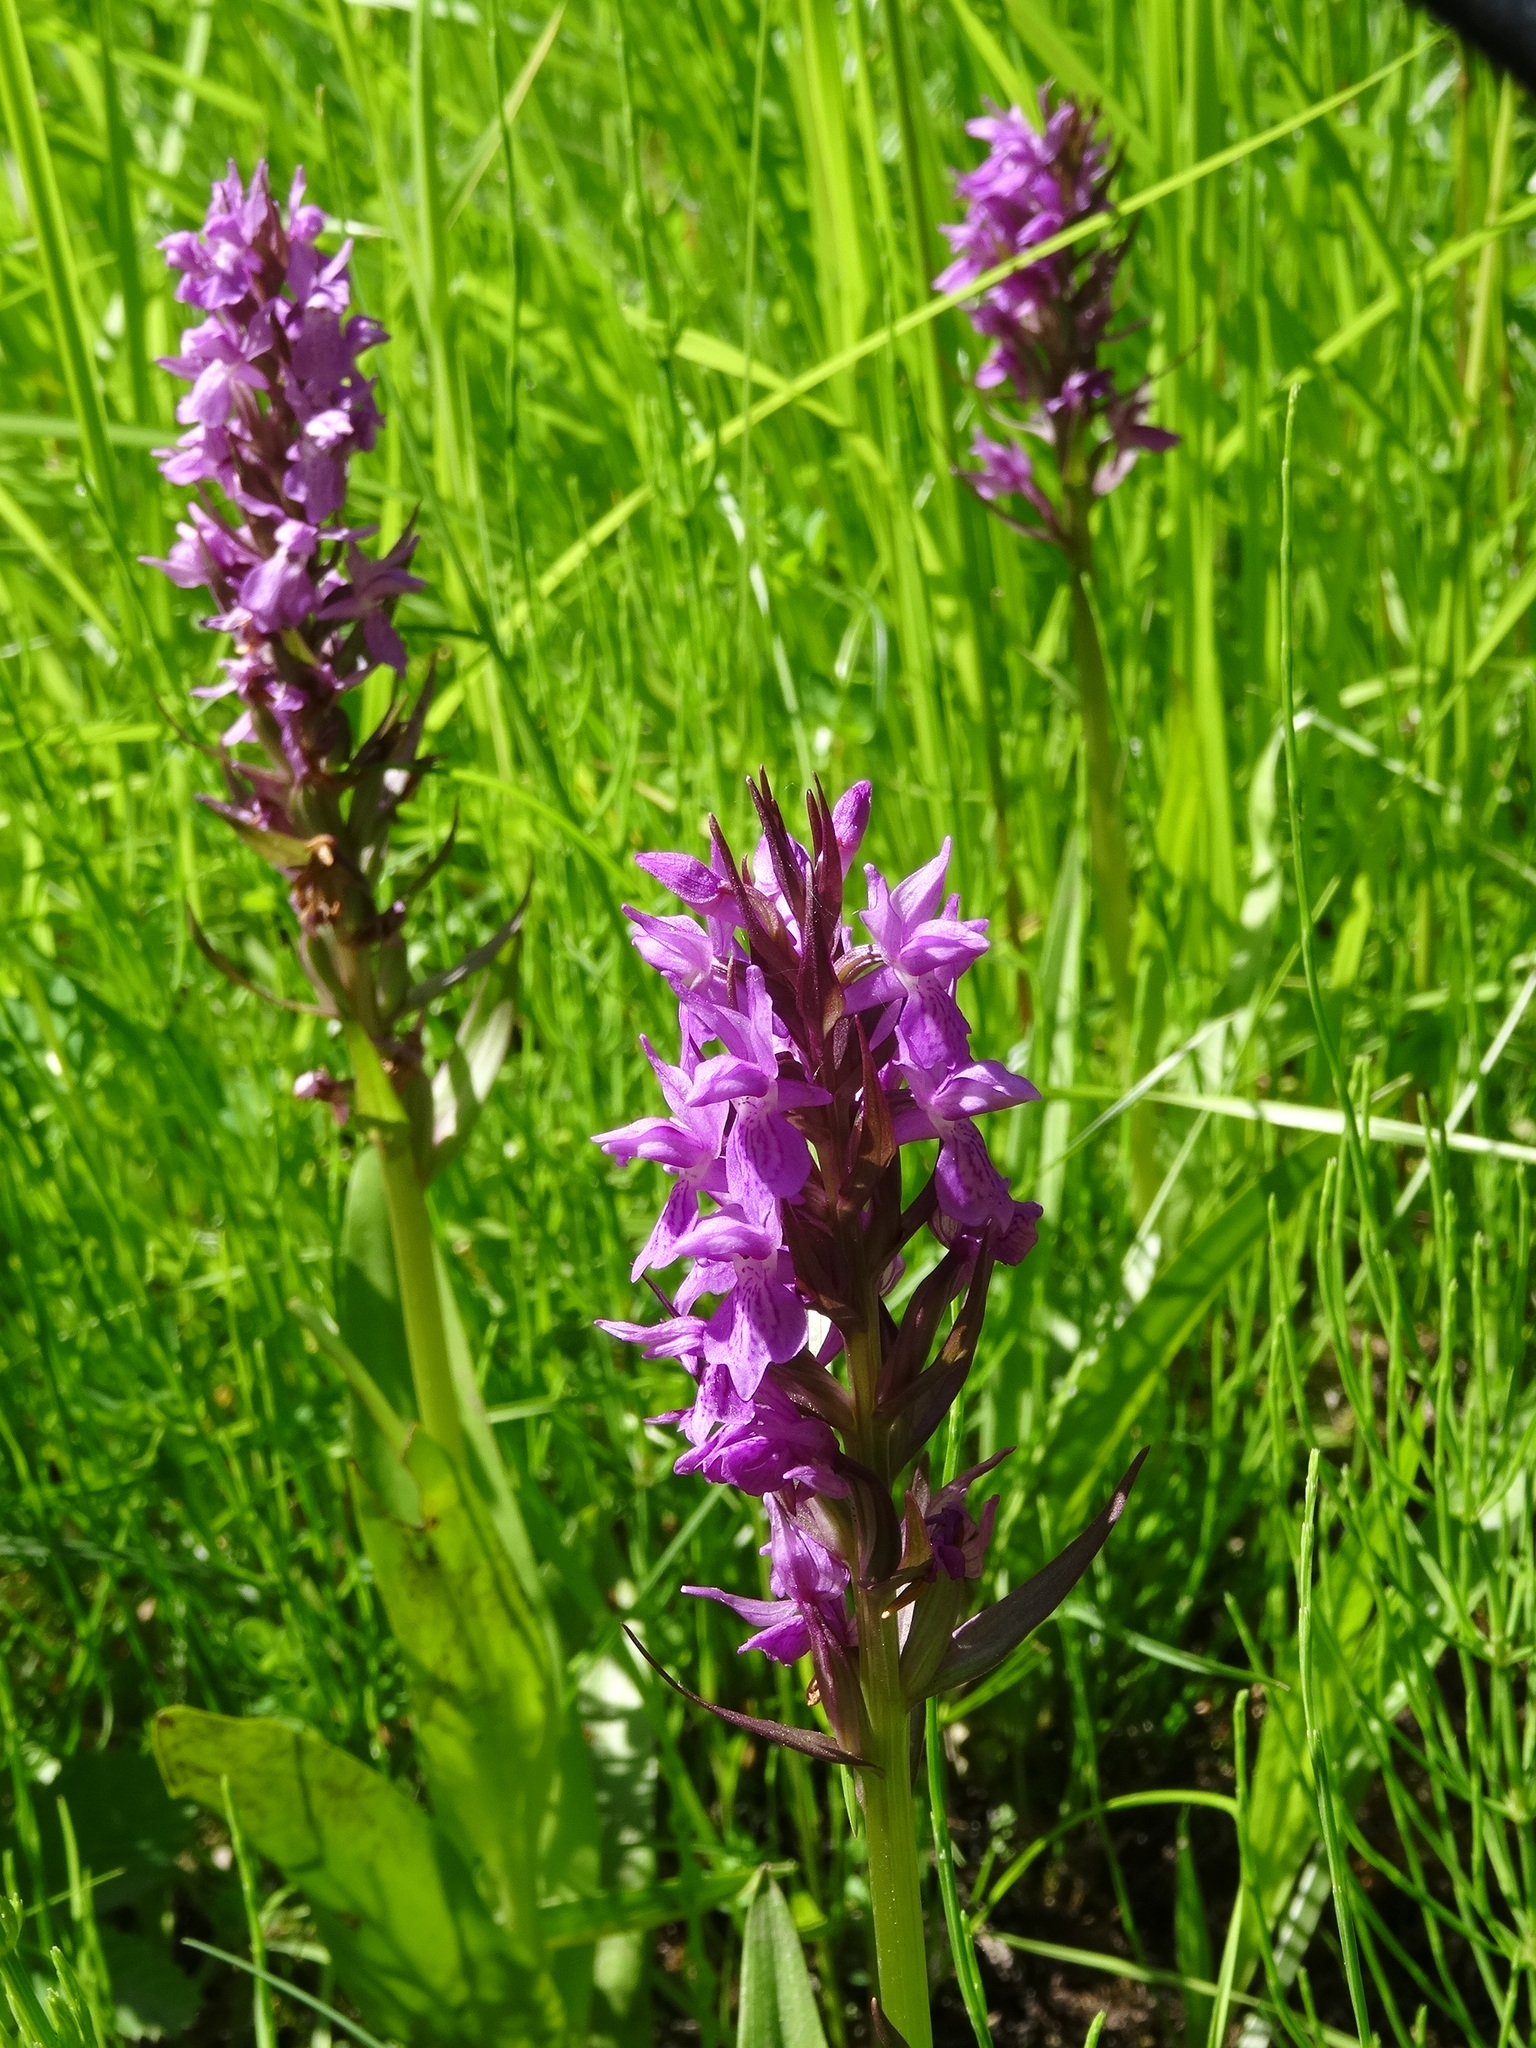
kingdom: Plantae
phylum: Tracheophyta
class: Liliopsida
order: Asparagales
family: Orchidaceae
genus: Dactylorhiza
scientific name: Dactylorhiza majalis
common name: Marsh orchid
